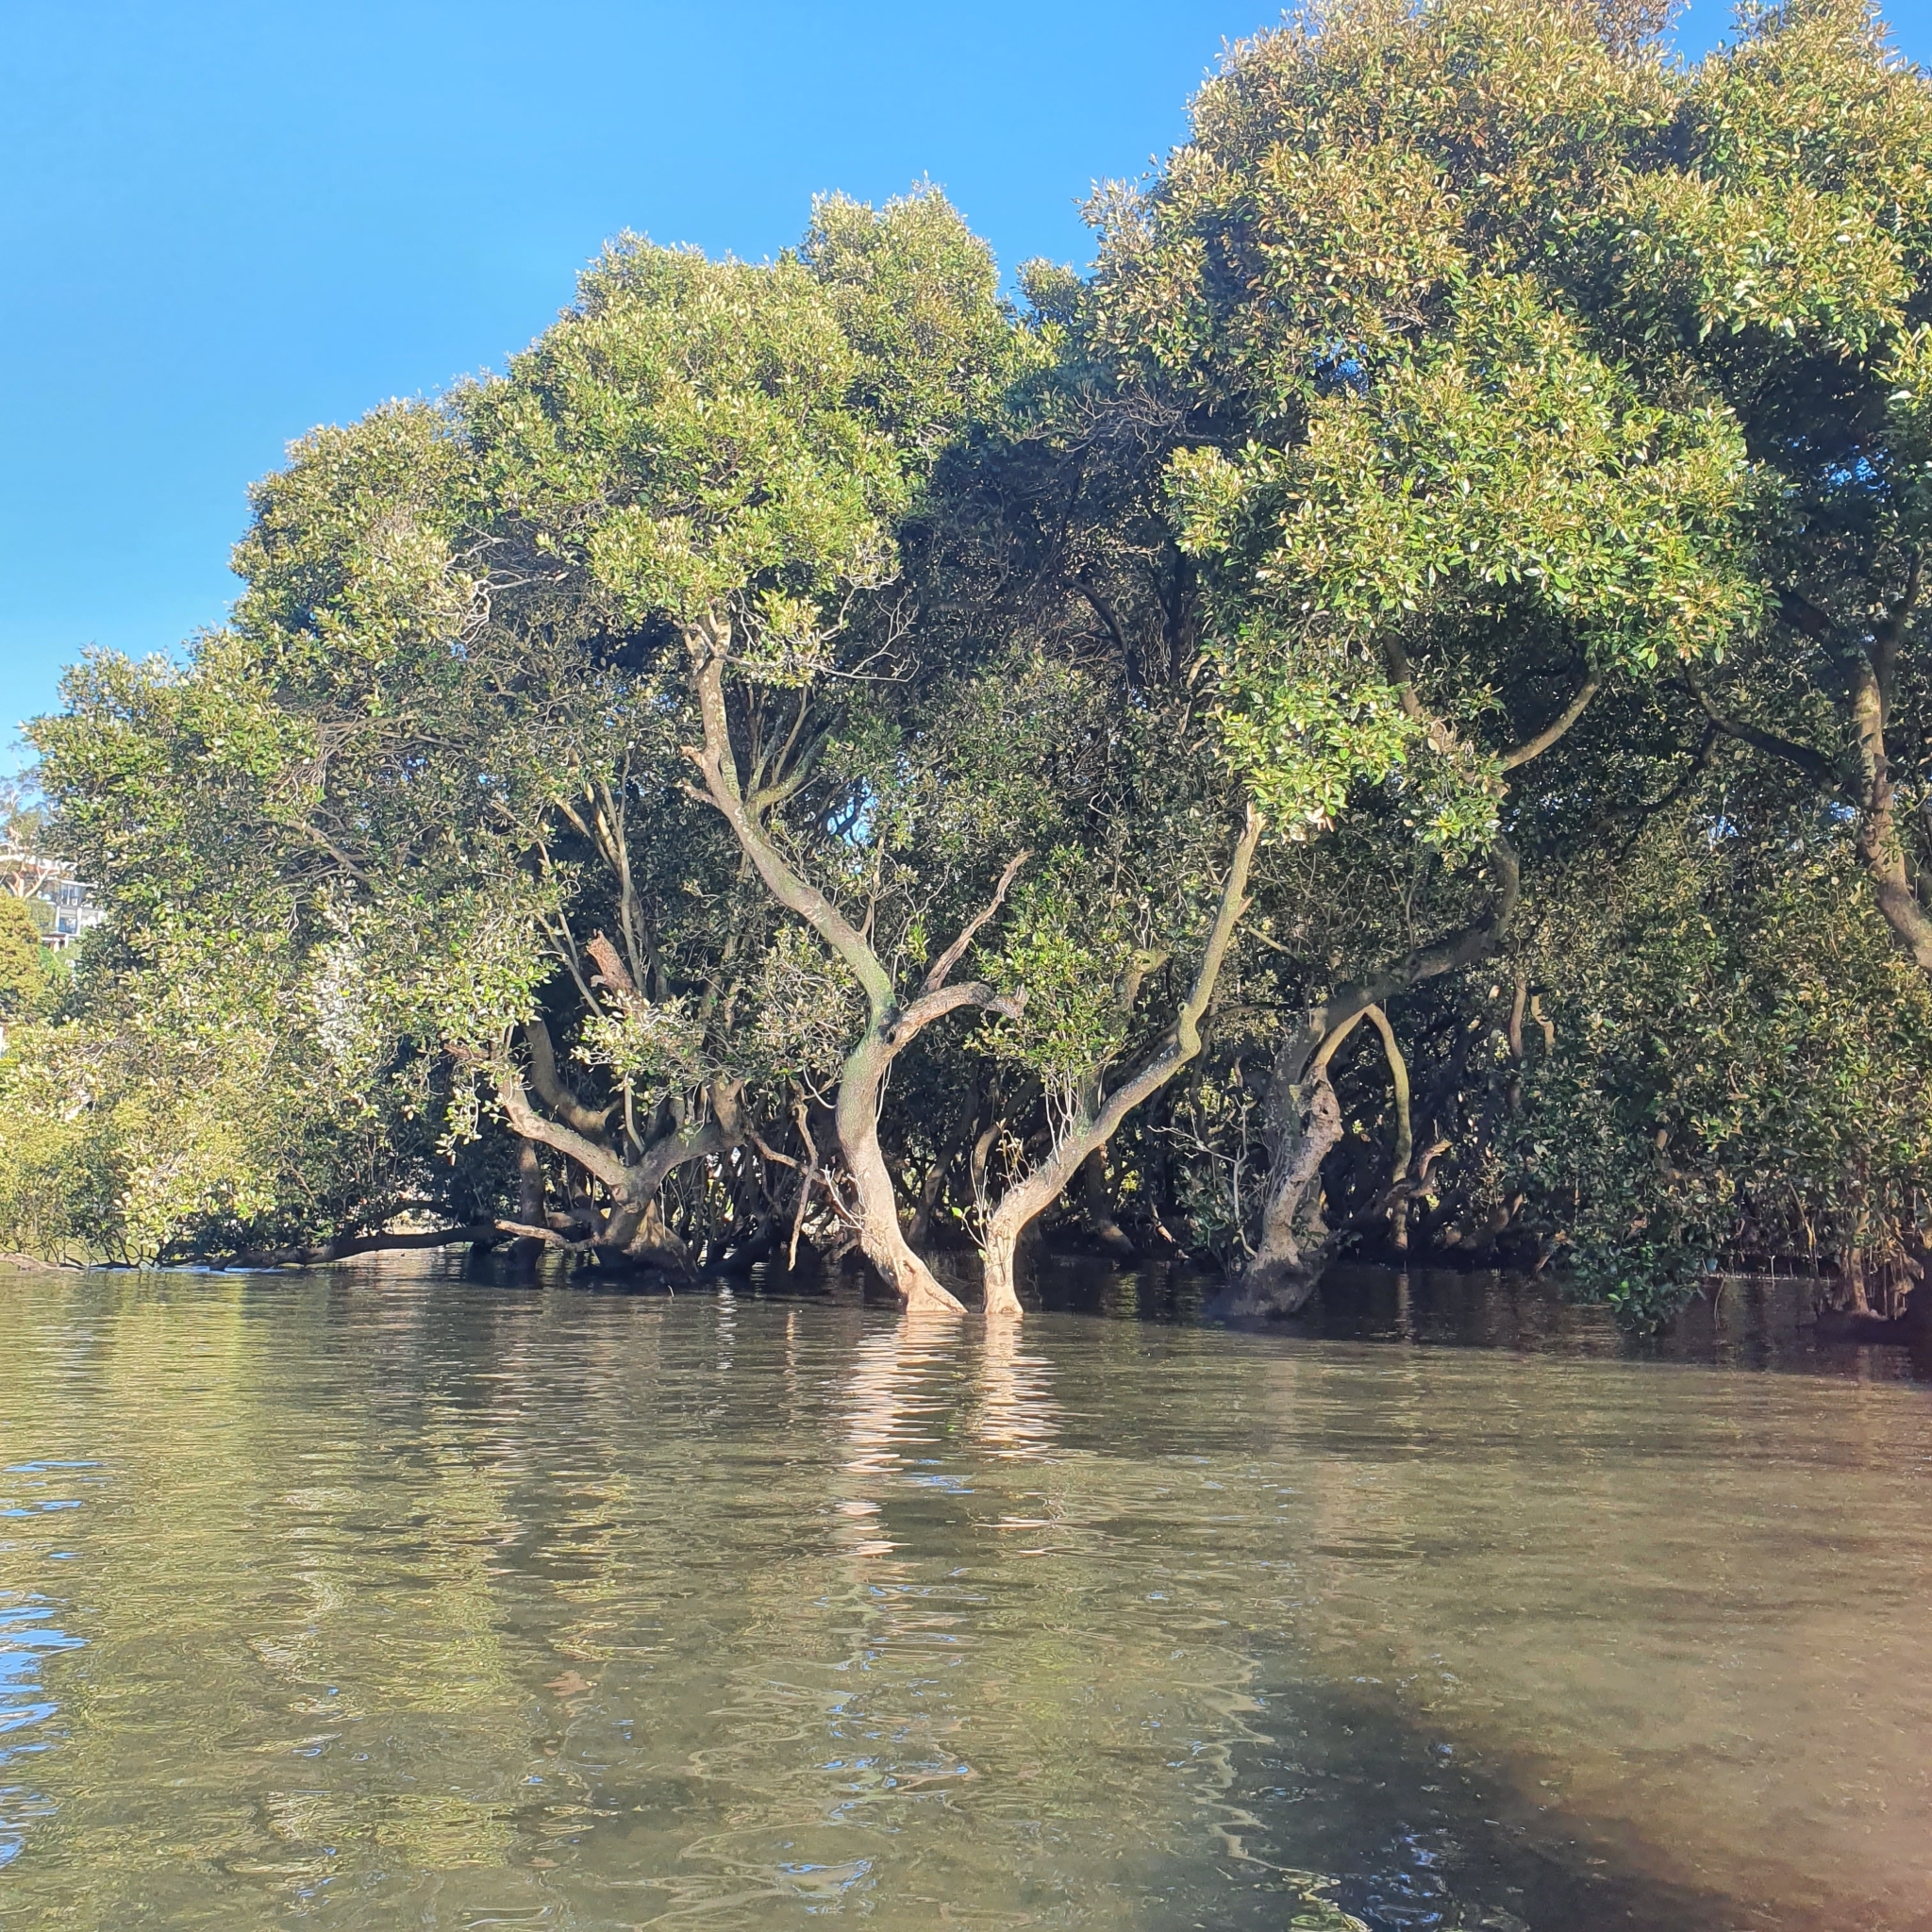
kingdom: Plantae
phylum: Tracheophyta
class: Magnoliopsida
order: Lamiales
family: Acanthaceae
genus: Avicennia
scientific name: Avicennia marina
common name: Gray mangrove
